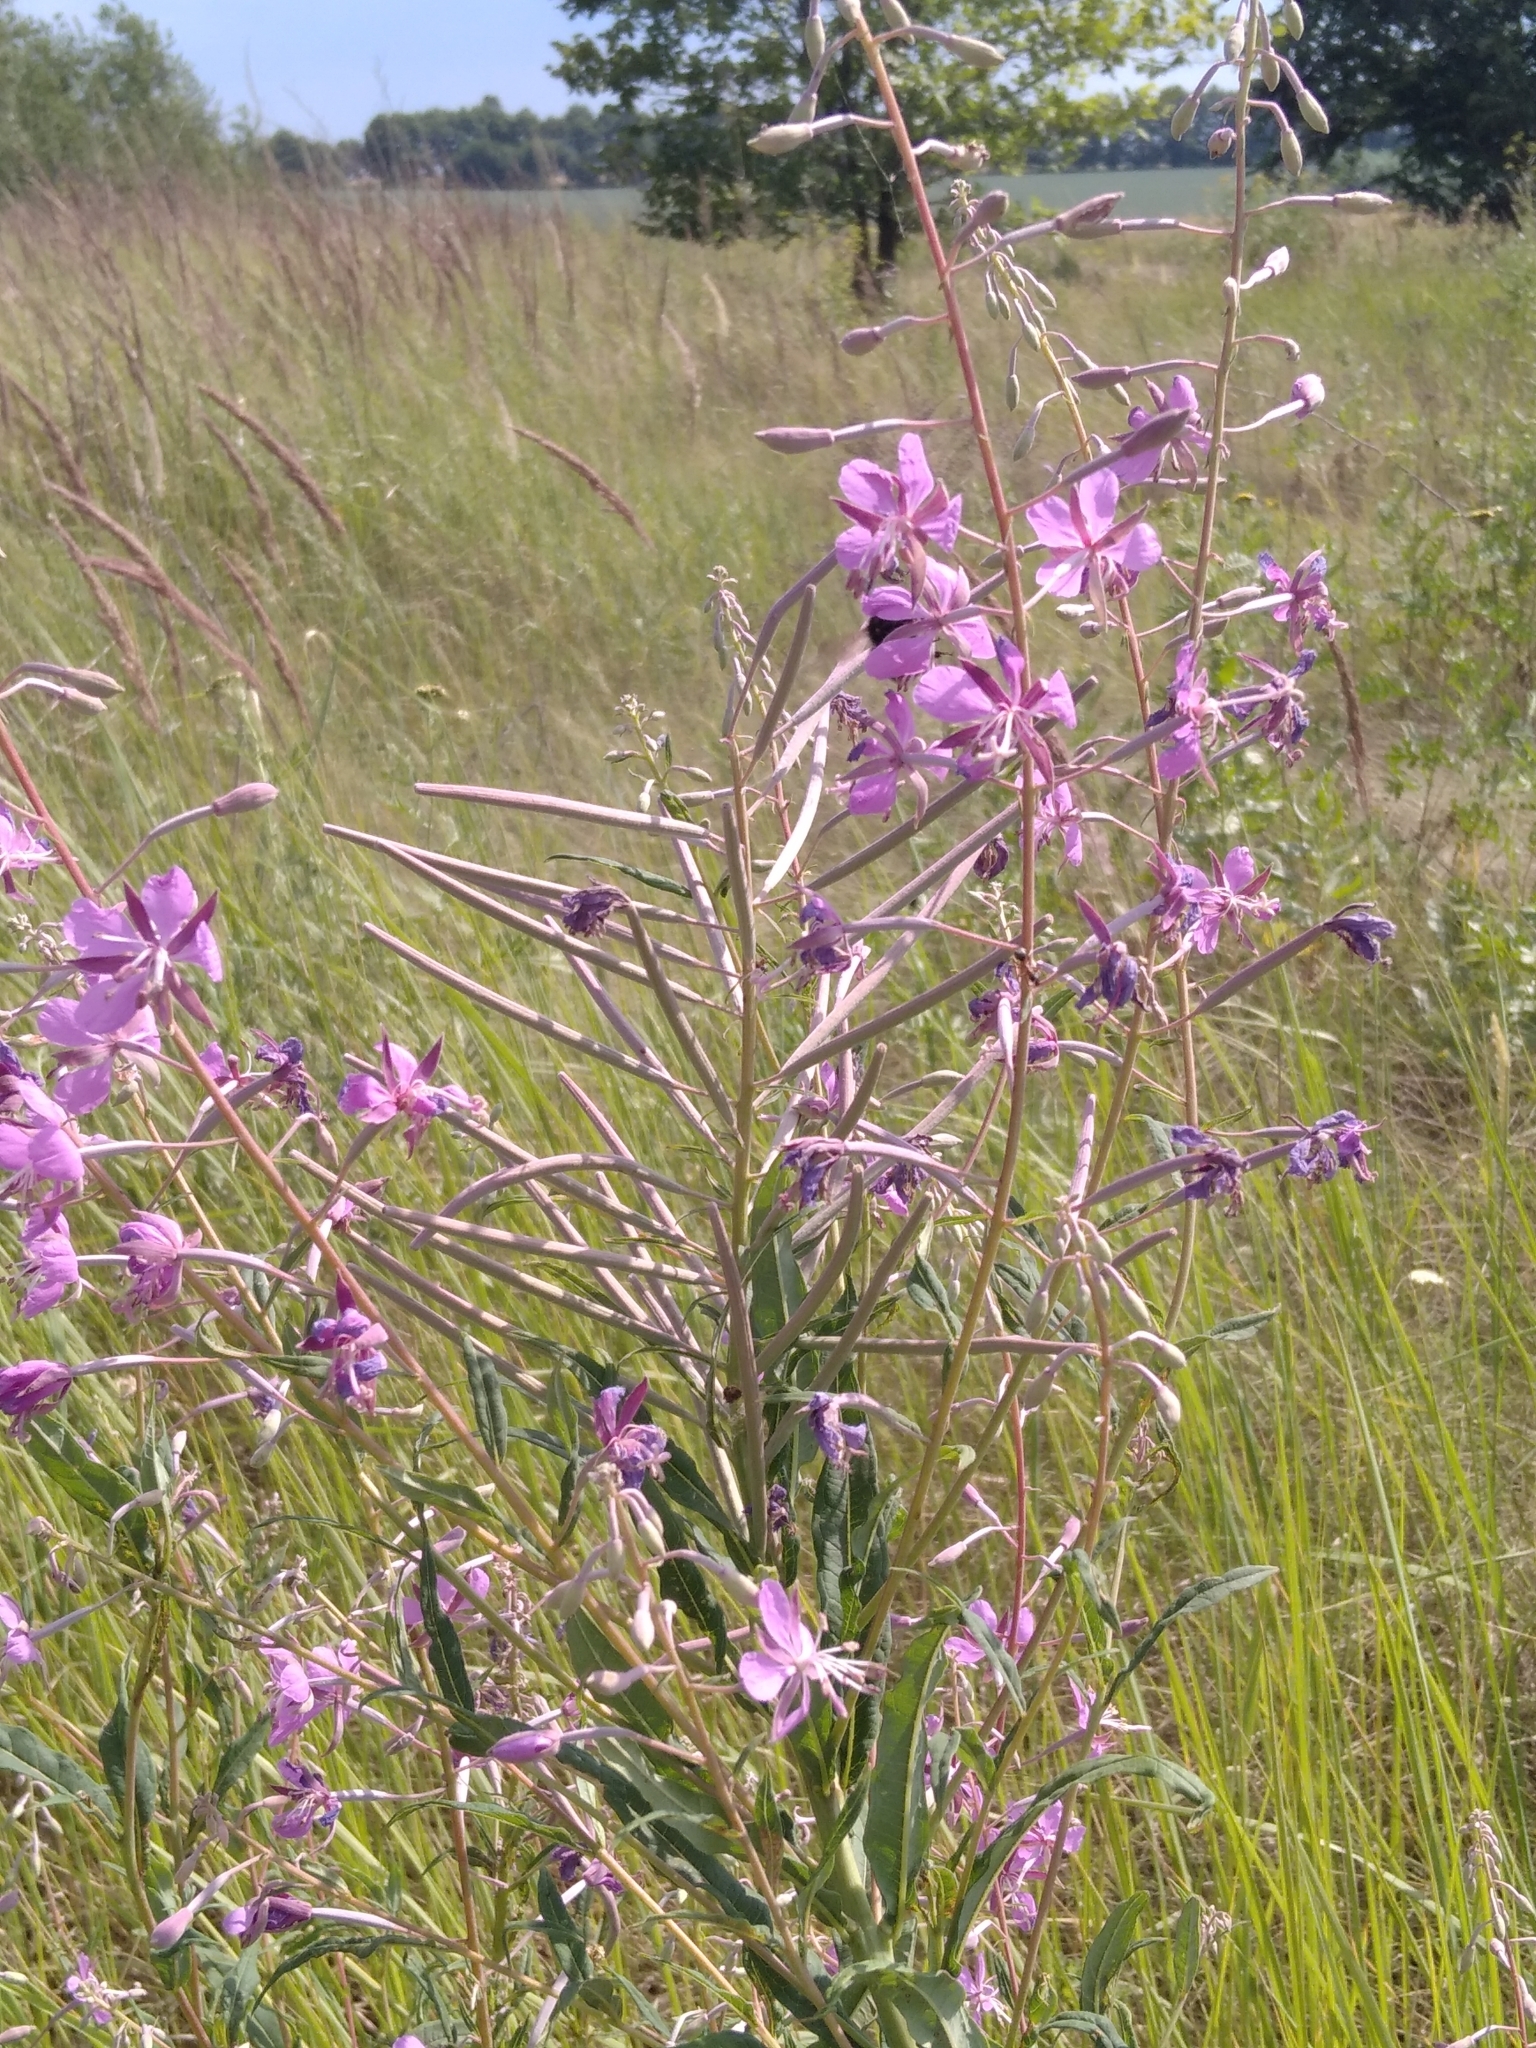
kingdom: Plantae
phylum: Tracheophyta
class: Magnoliopsida
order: Myrtales
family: Onagraceae
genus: Chamaenerion
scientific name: Chamaenerion angustifolium
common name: Fireweed
